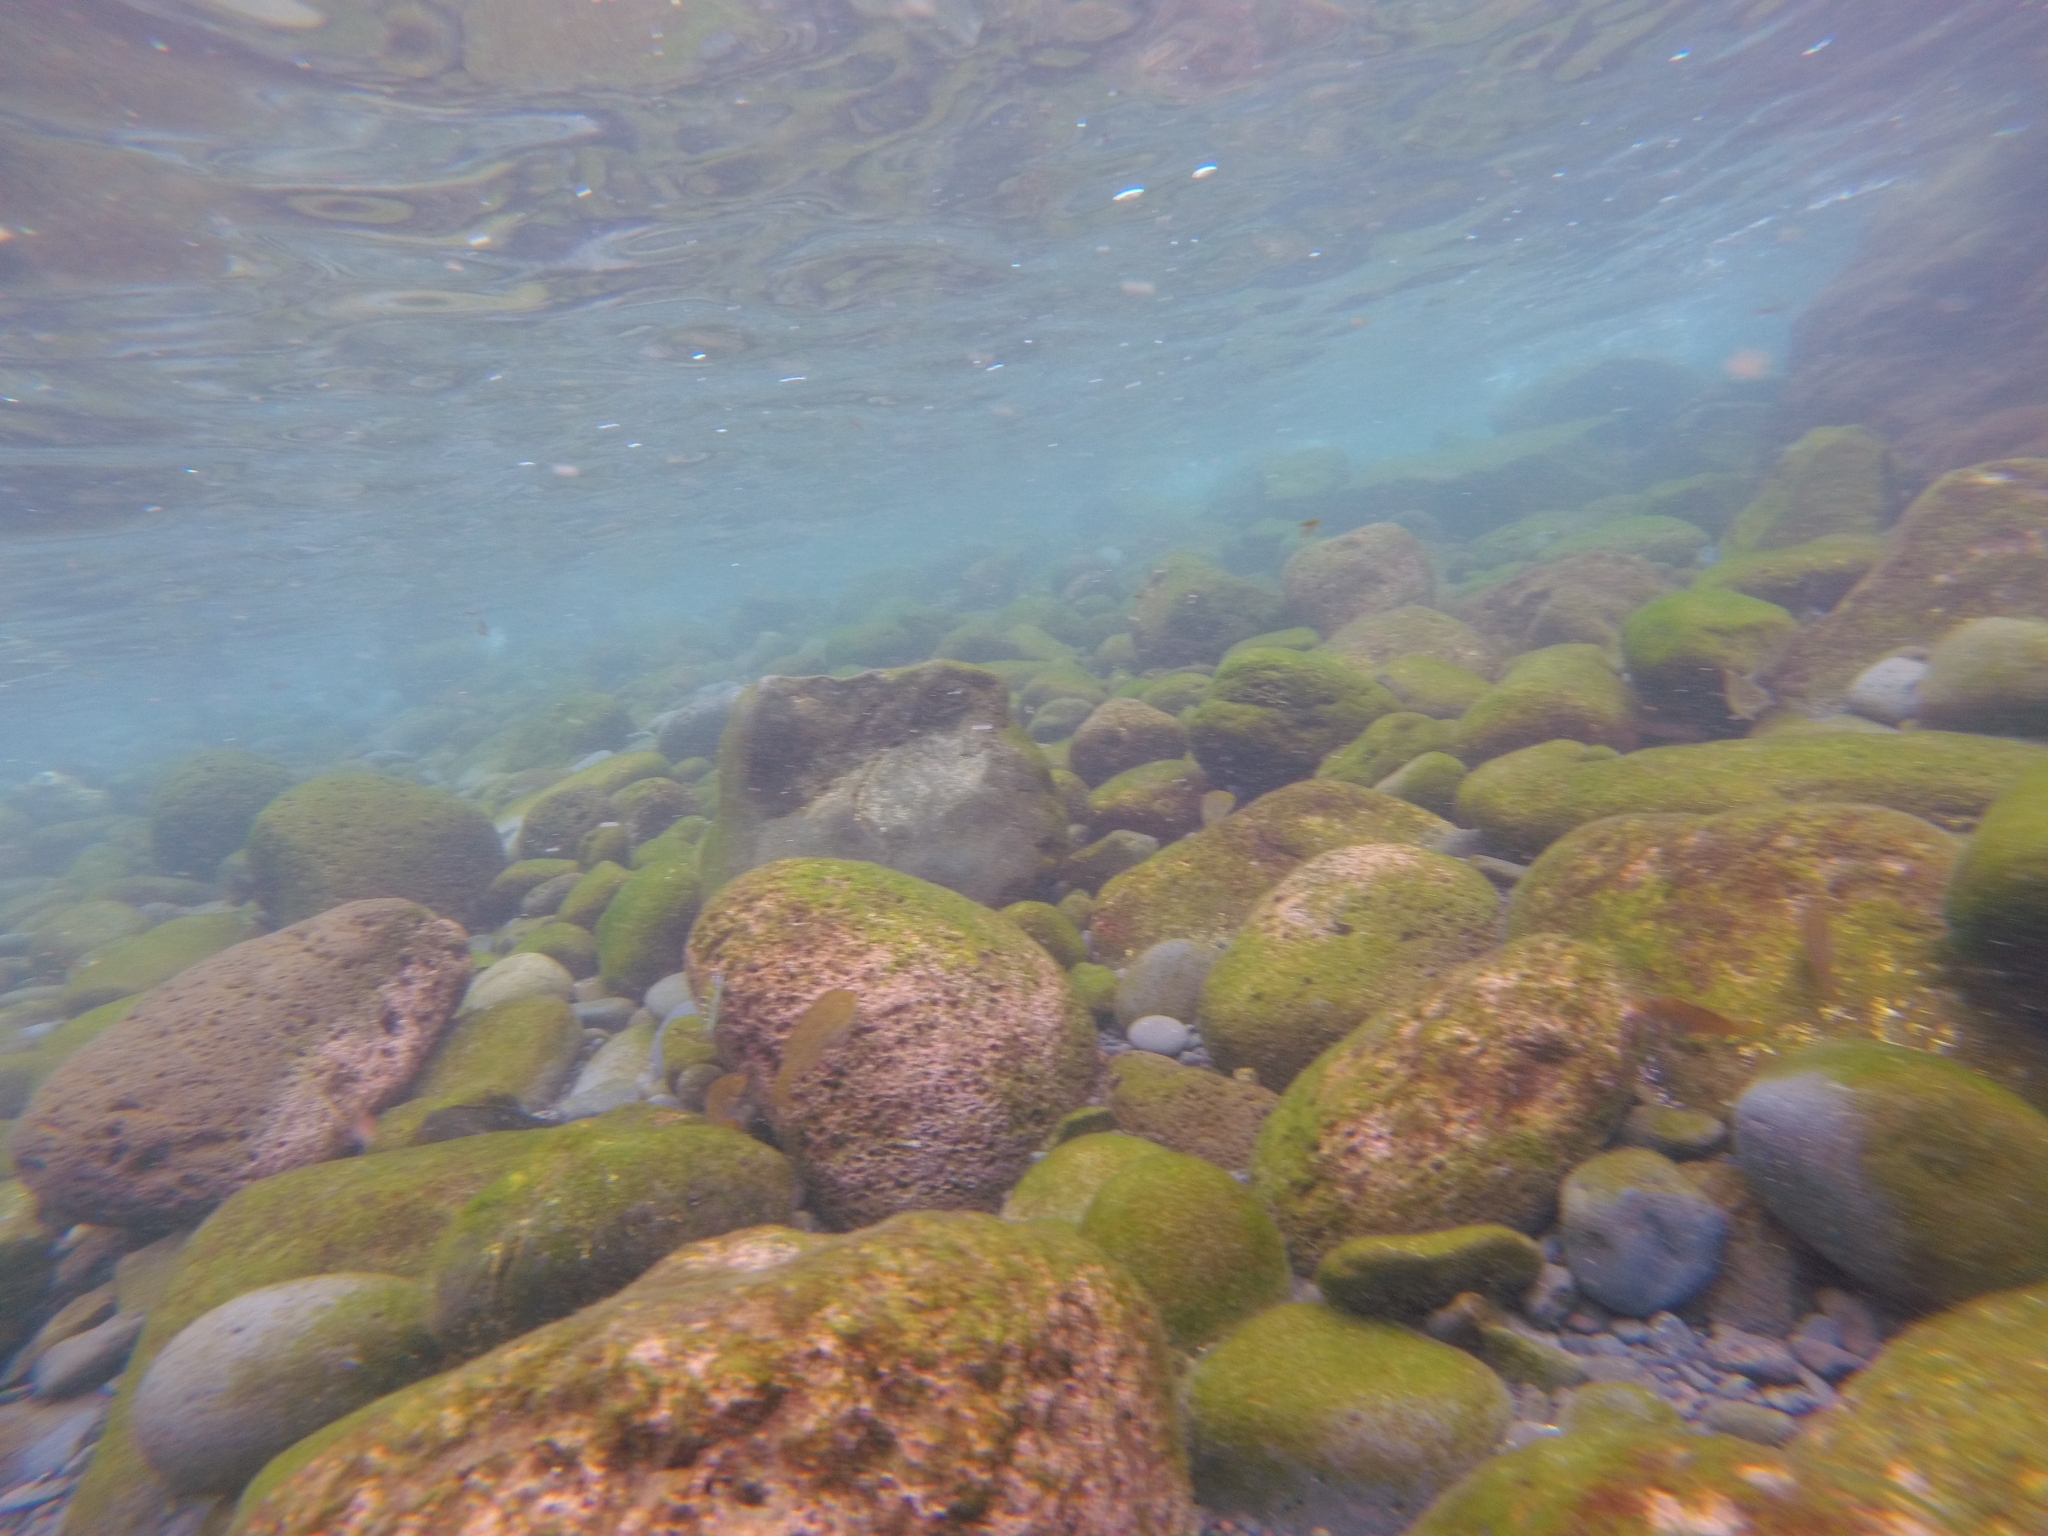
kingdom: Animalia
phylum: Chordata
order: Perciformes
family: Scaridae
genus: Sparisoma
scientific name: Sparisoma cretense
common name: Parrotfish
